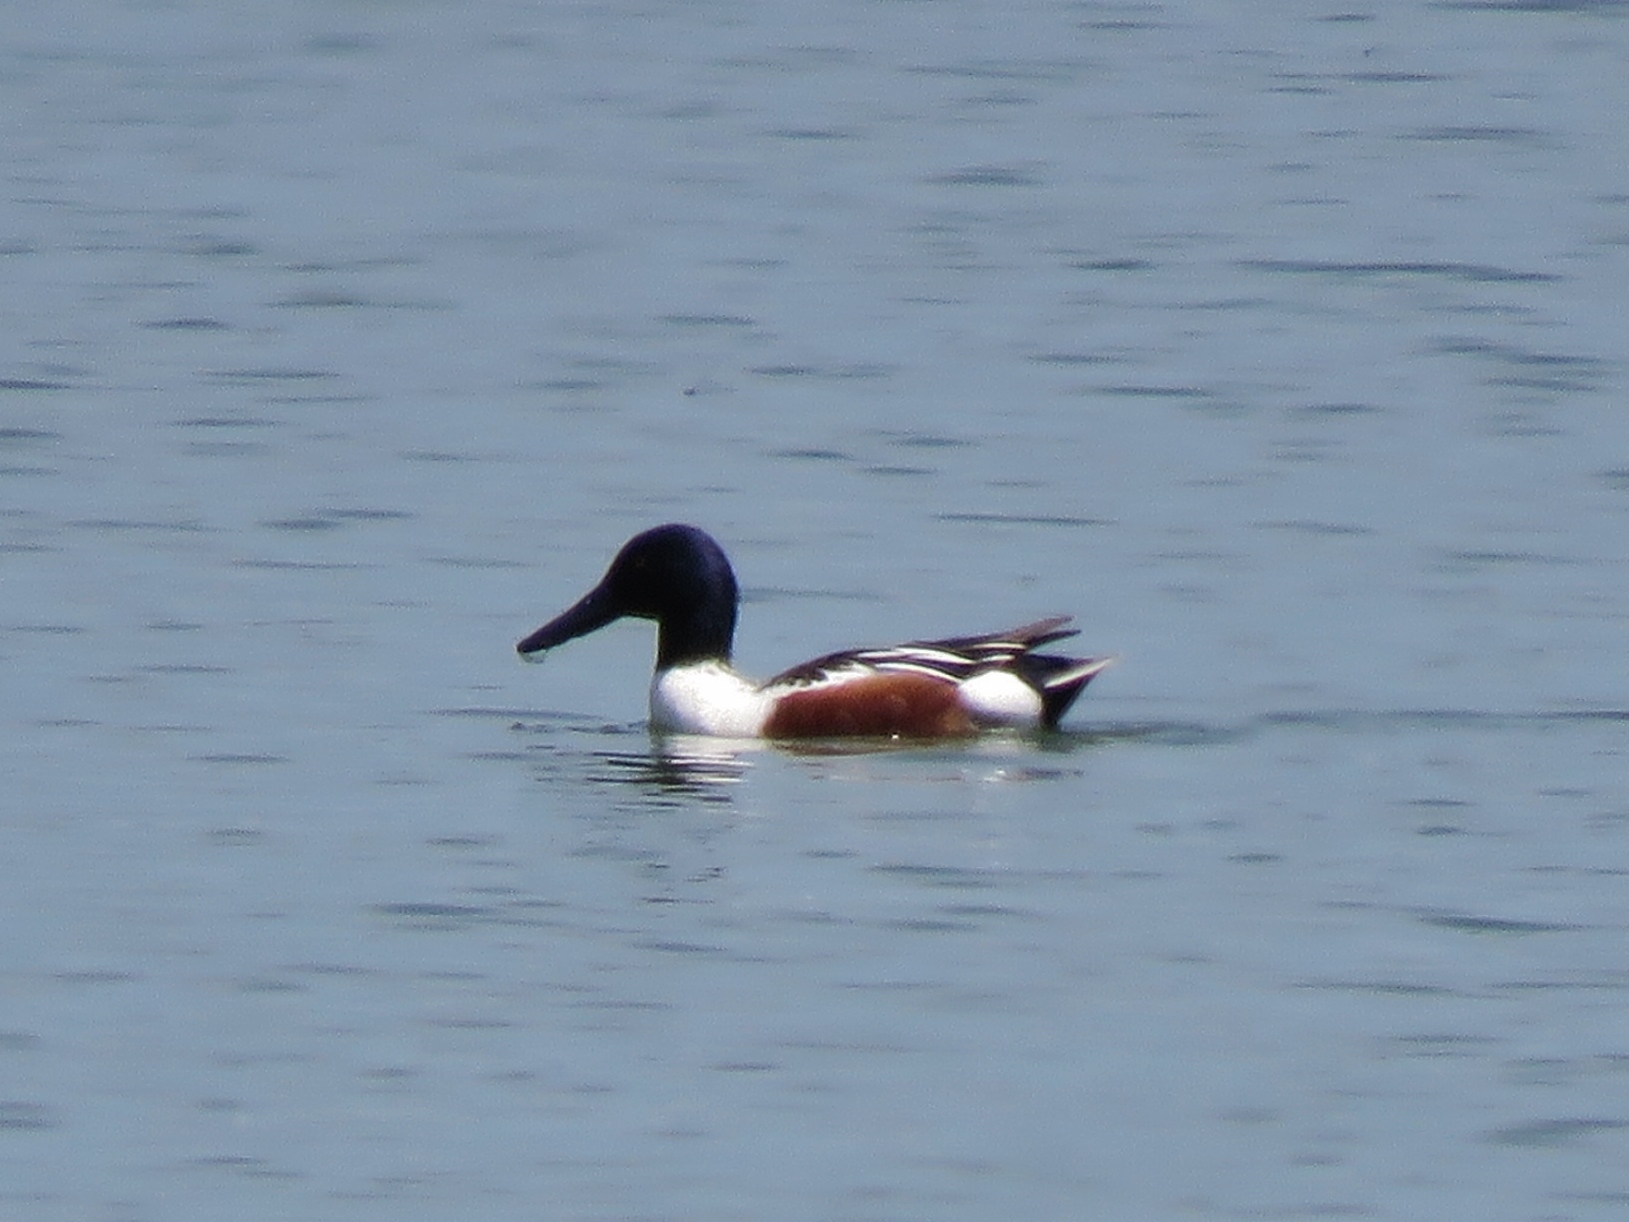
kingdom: Animalia
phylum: Chordata
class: Aves
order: Anseriformes
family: Anatidae
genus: Spatula
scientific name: Spatula clypeata
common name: Northern shoveler
